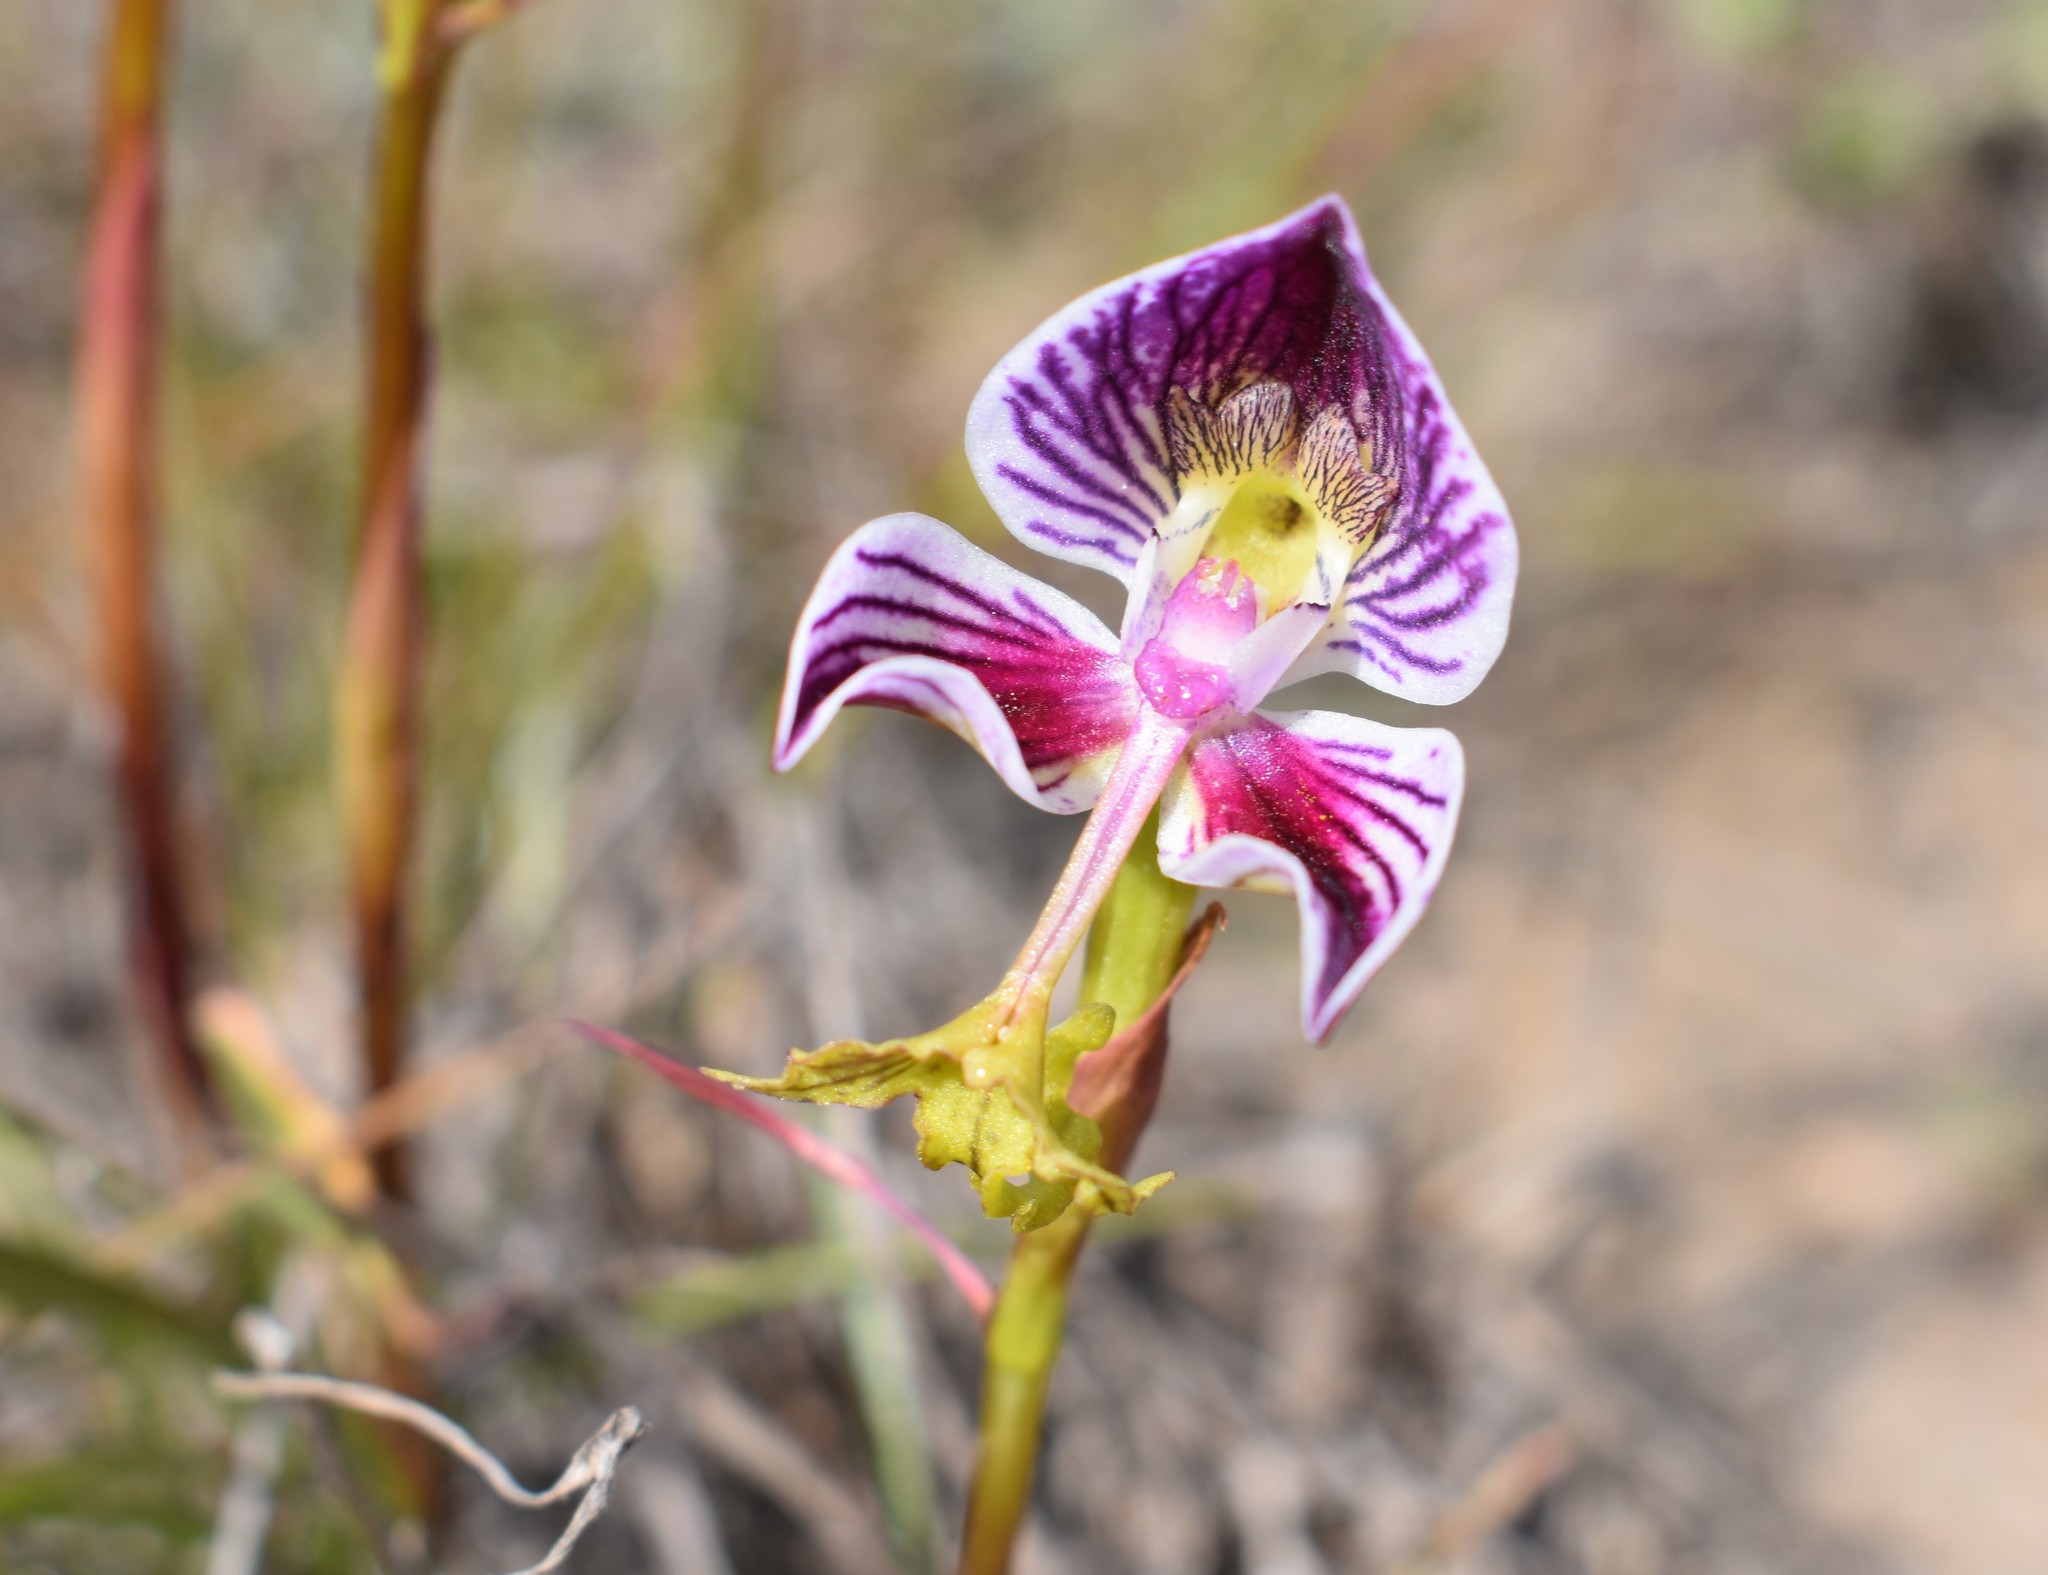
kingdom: Plantae
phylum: Tracheophyta
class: Liliopsida
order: Asparagales
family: Orchidaceae
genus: Disa
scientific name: Disa spathulata
